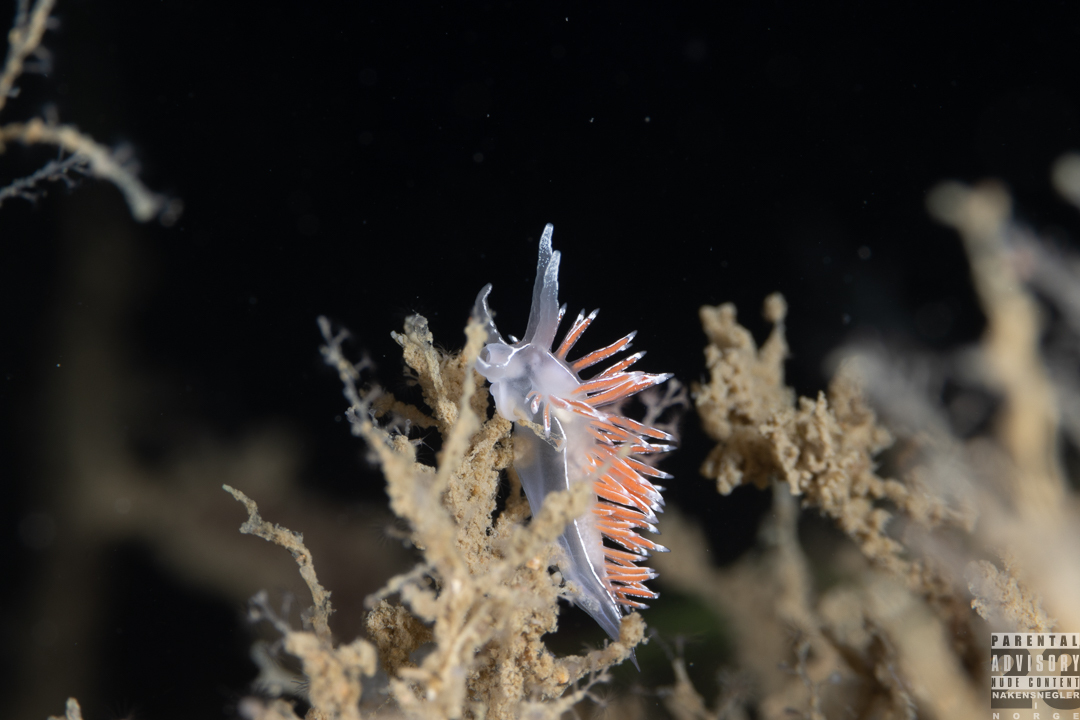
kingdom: Animalia
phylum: Mollusca
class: Gastropoda
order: Nudibranchia
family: Coryphellidae
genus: Coryphella
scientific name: Coryphella chriskaugei
